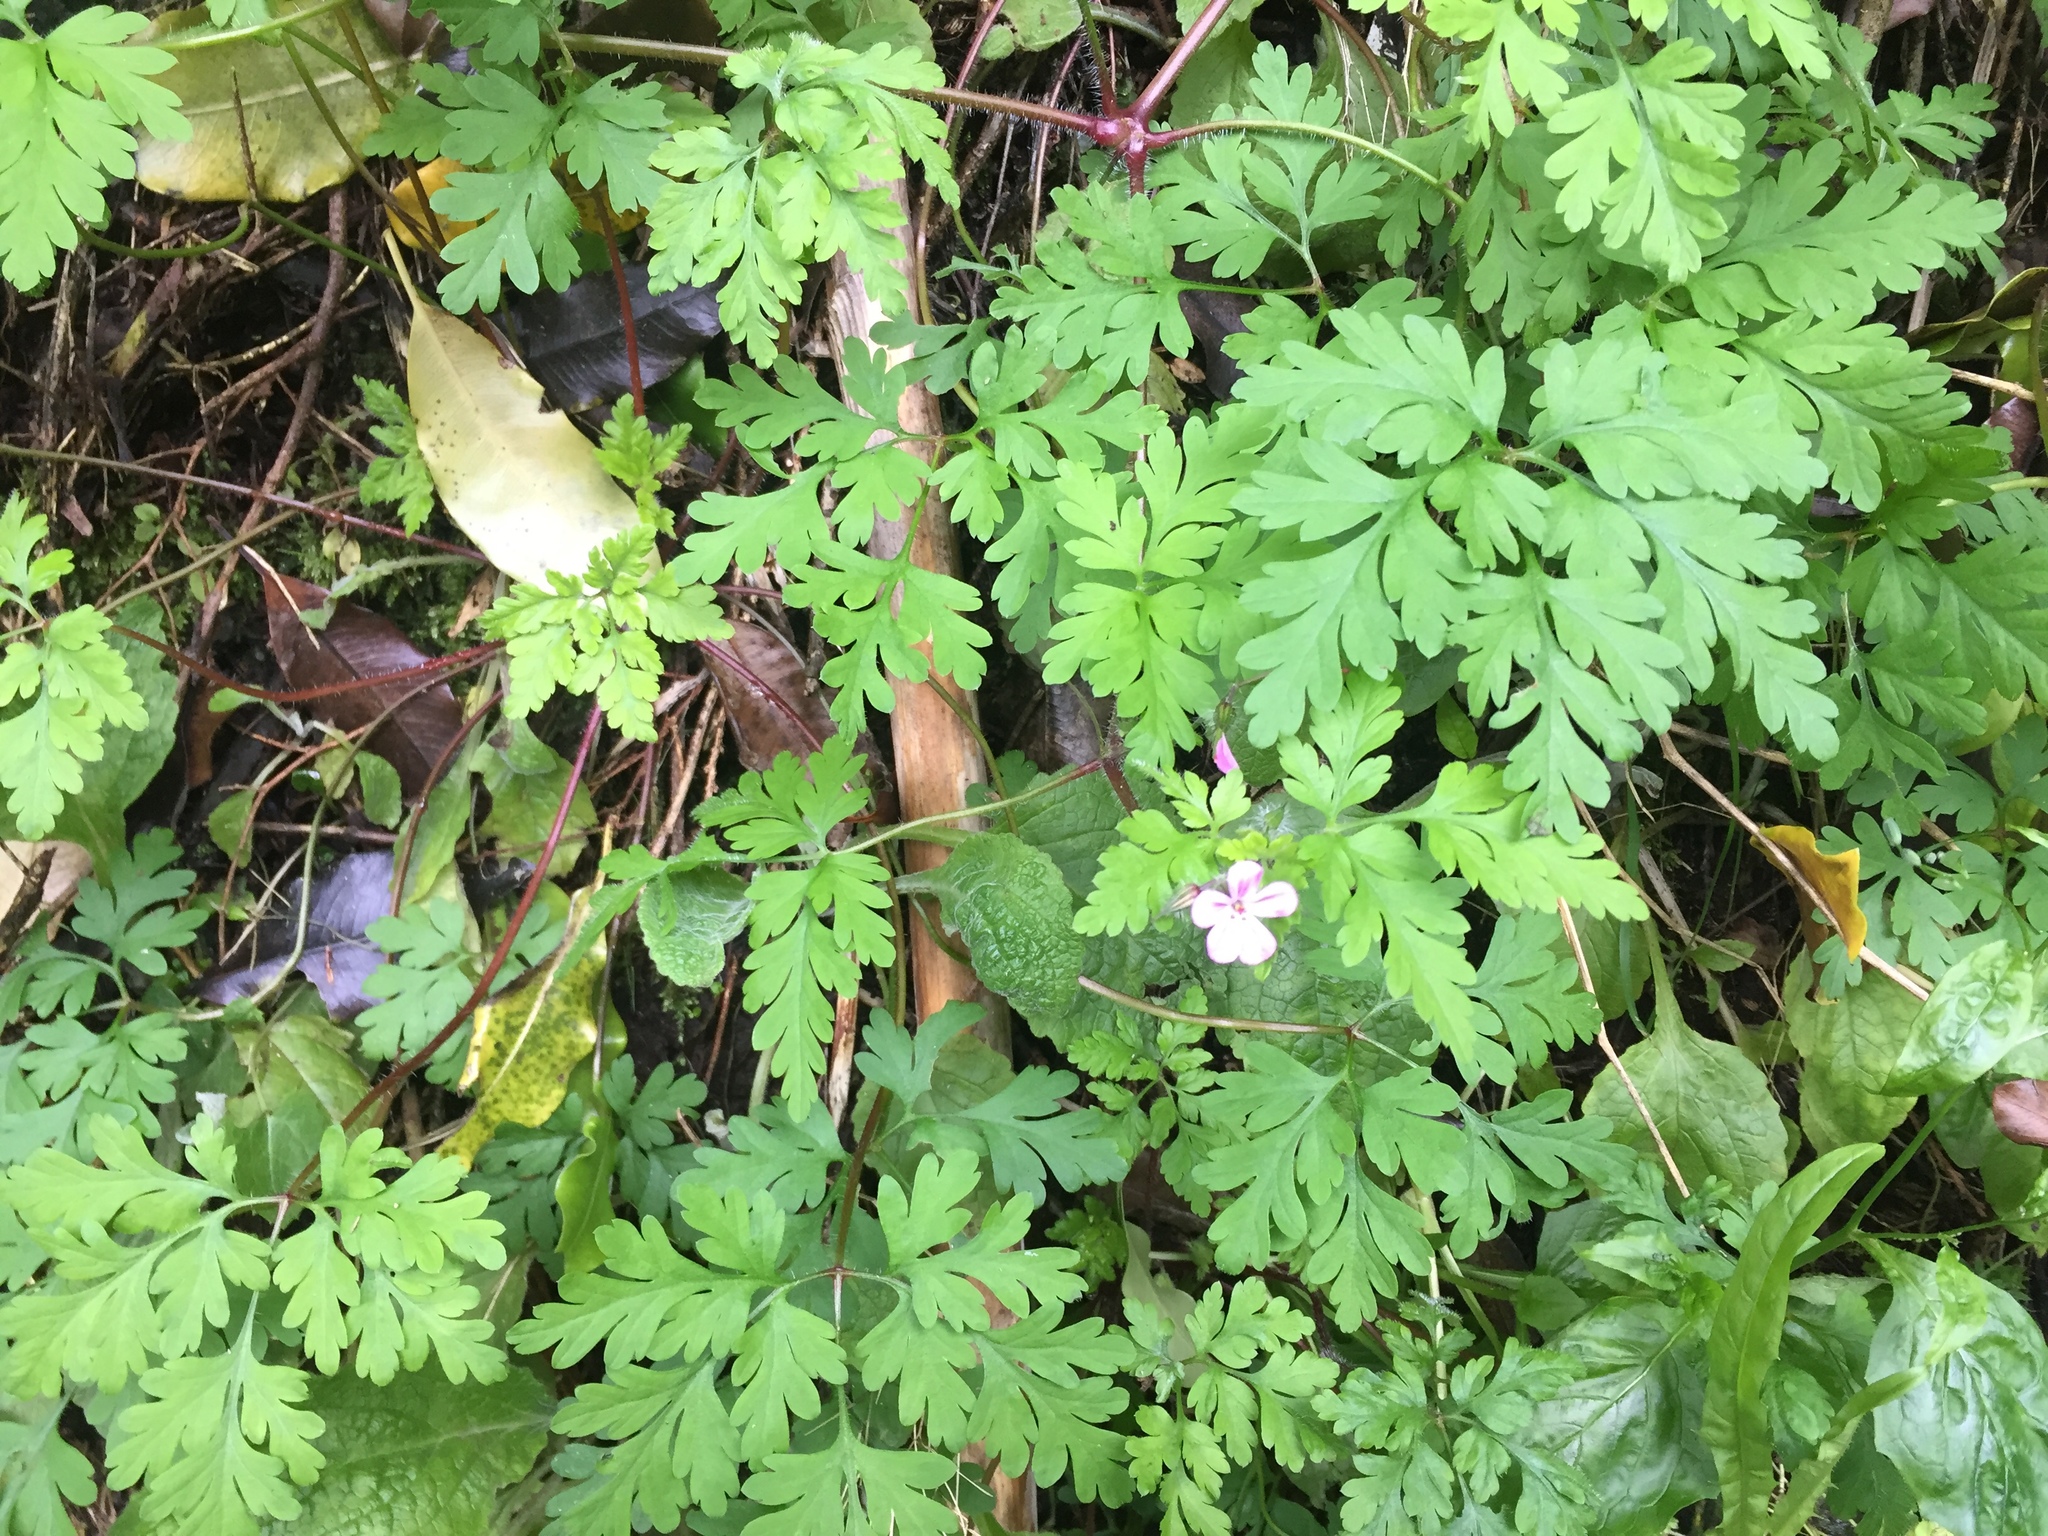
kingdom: Plantae
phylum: Tracheophyta
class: Magnoliopsida
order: Geraniales
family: Geraniaceae
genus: Geranium
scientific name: Geranium robertianum
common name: Herb-robert
